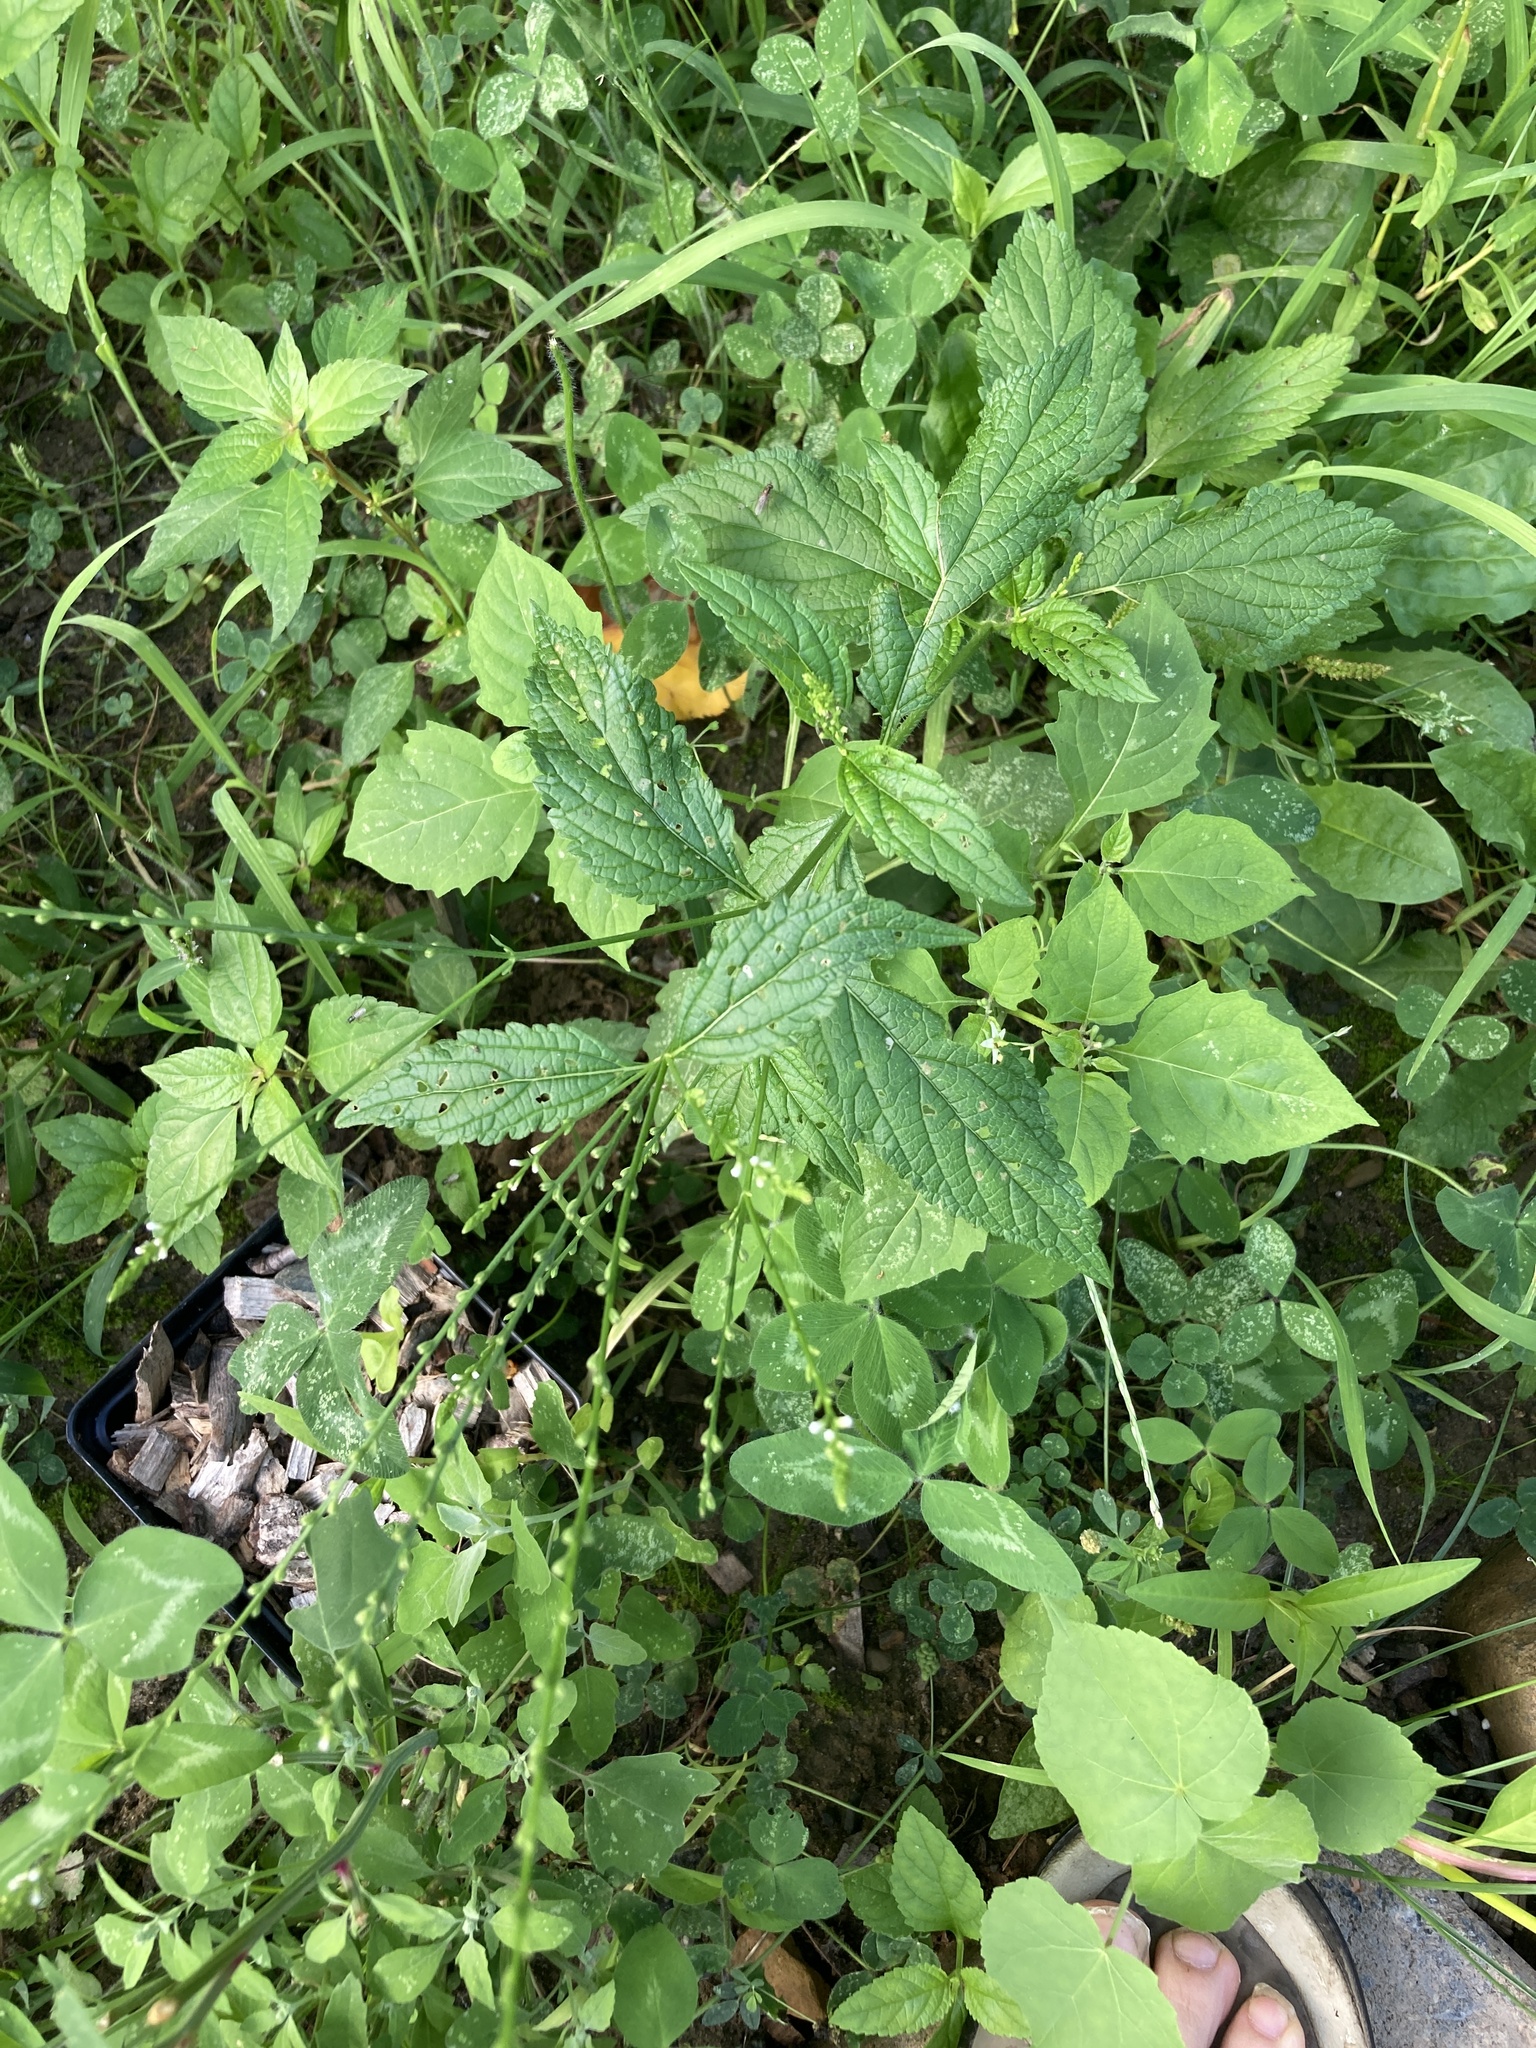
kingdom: Plantae
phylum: Tracheophyta
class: Magnoliopsida
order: Lamiales
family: Verbenaceae
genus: Verbena
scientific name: Verbena urticifolia
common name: Nettle-leaved vervain
